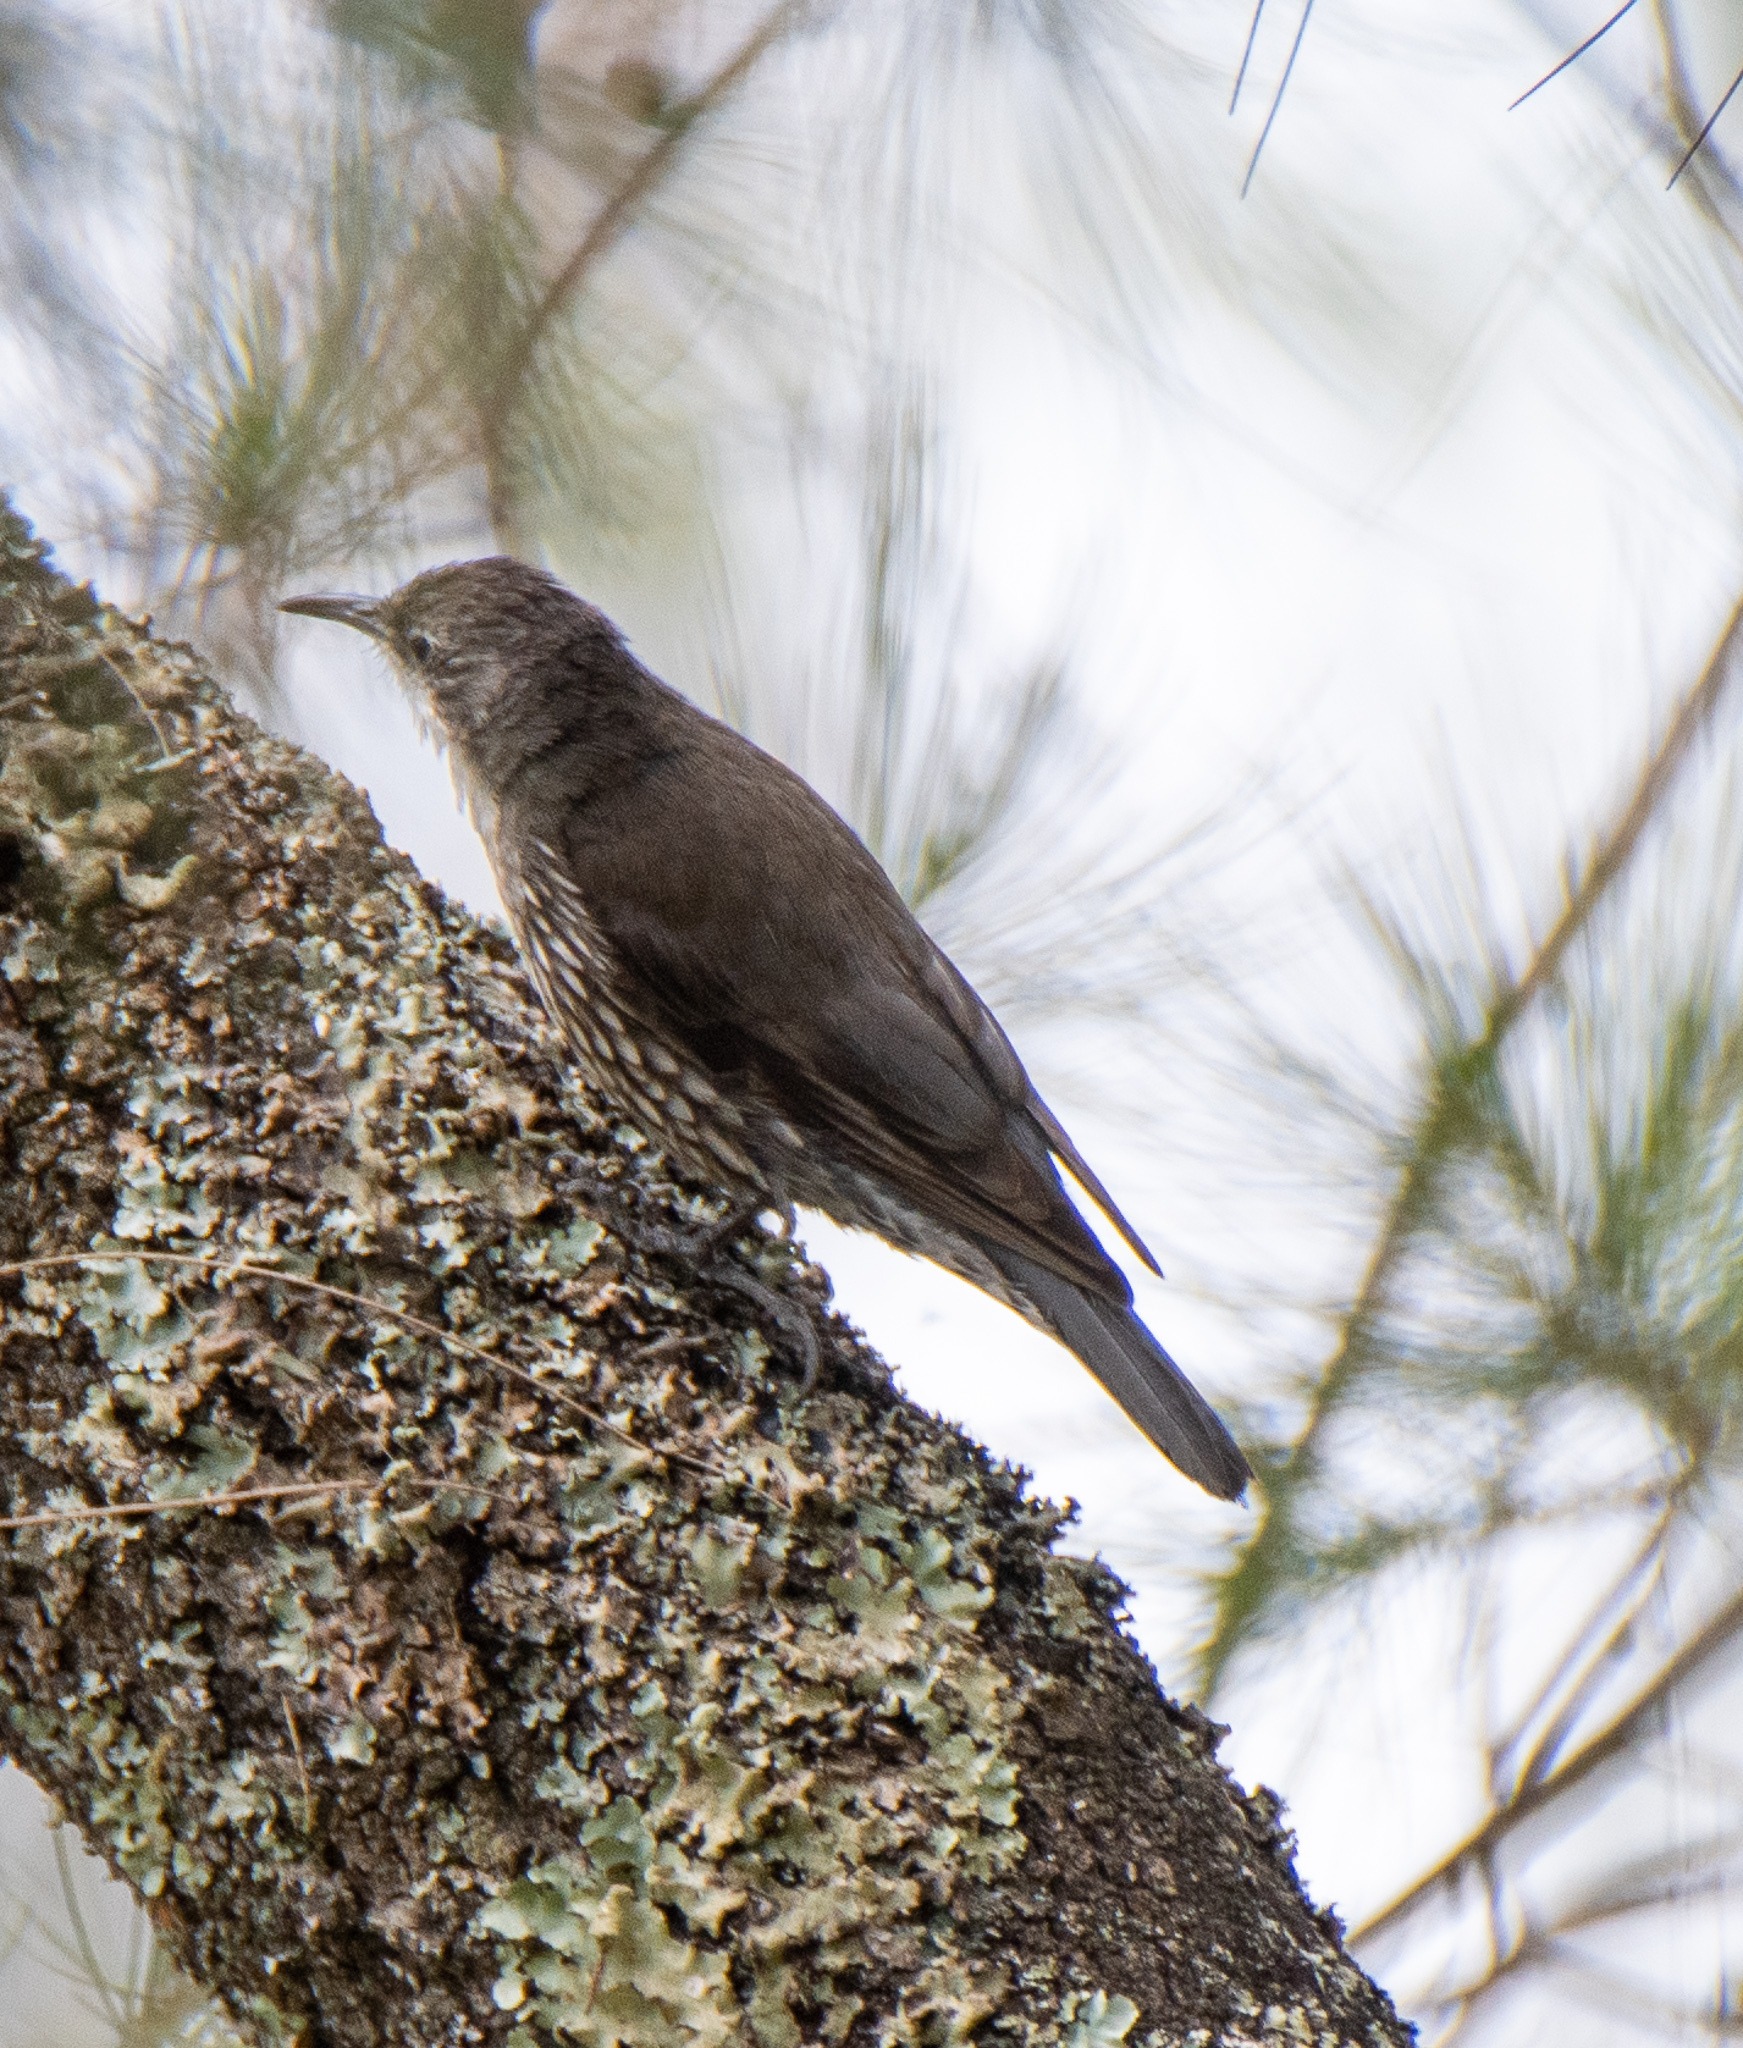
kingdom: Animalia
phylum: Chordata
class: Aves
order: Passeriformes
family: Climacteridae
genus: Cormobates
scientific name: Cormobates leucophaea
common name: White-throated treecreeper
